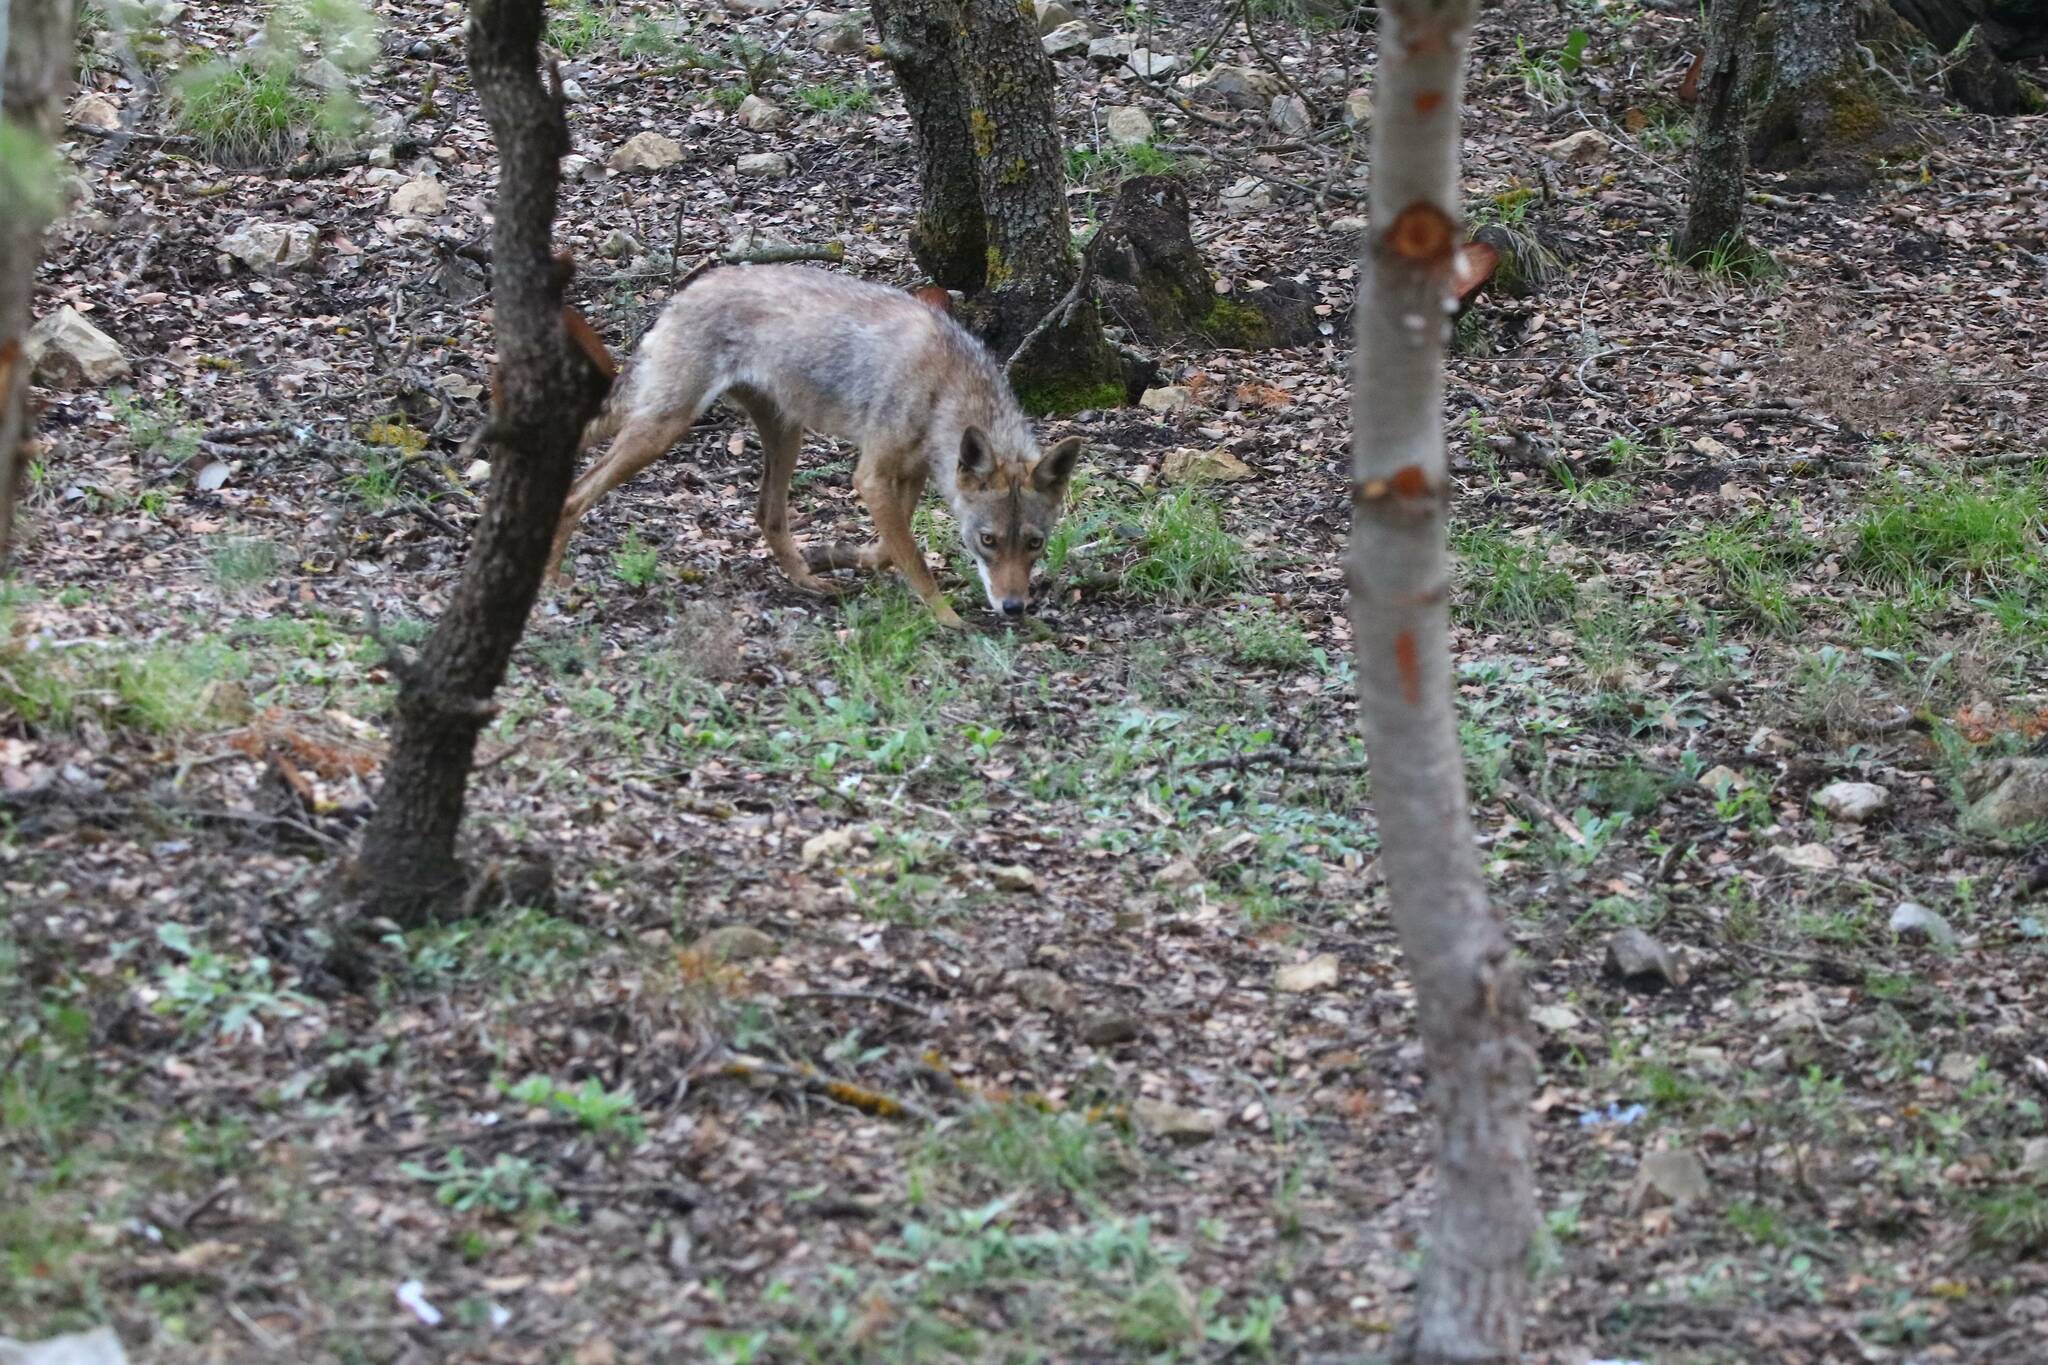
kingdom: Animalia
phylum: Chordata
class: Mammalia
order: Carnivora
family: Canidae
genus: Canis
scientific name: Canis lupaster
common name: African golden wolf
